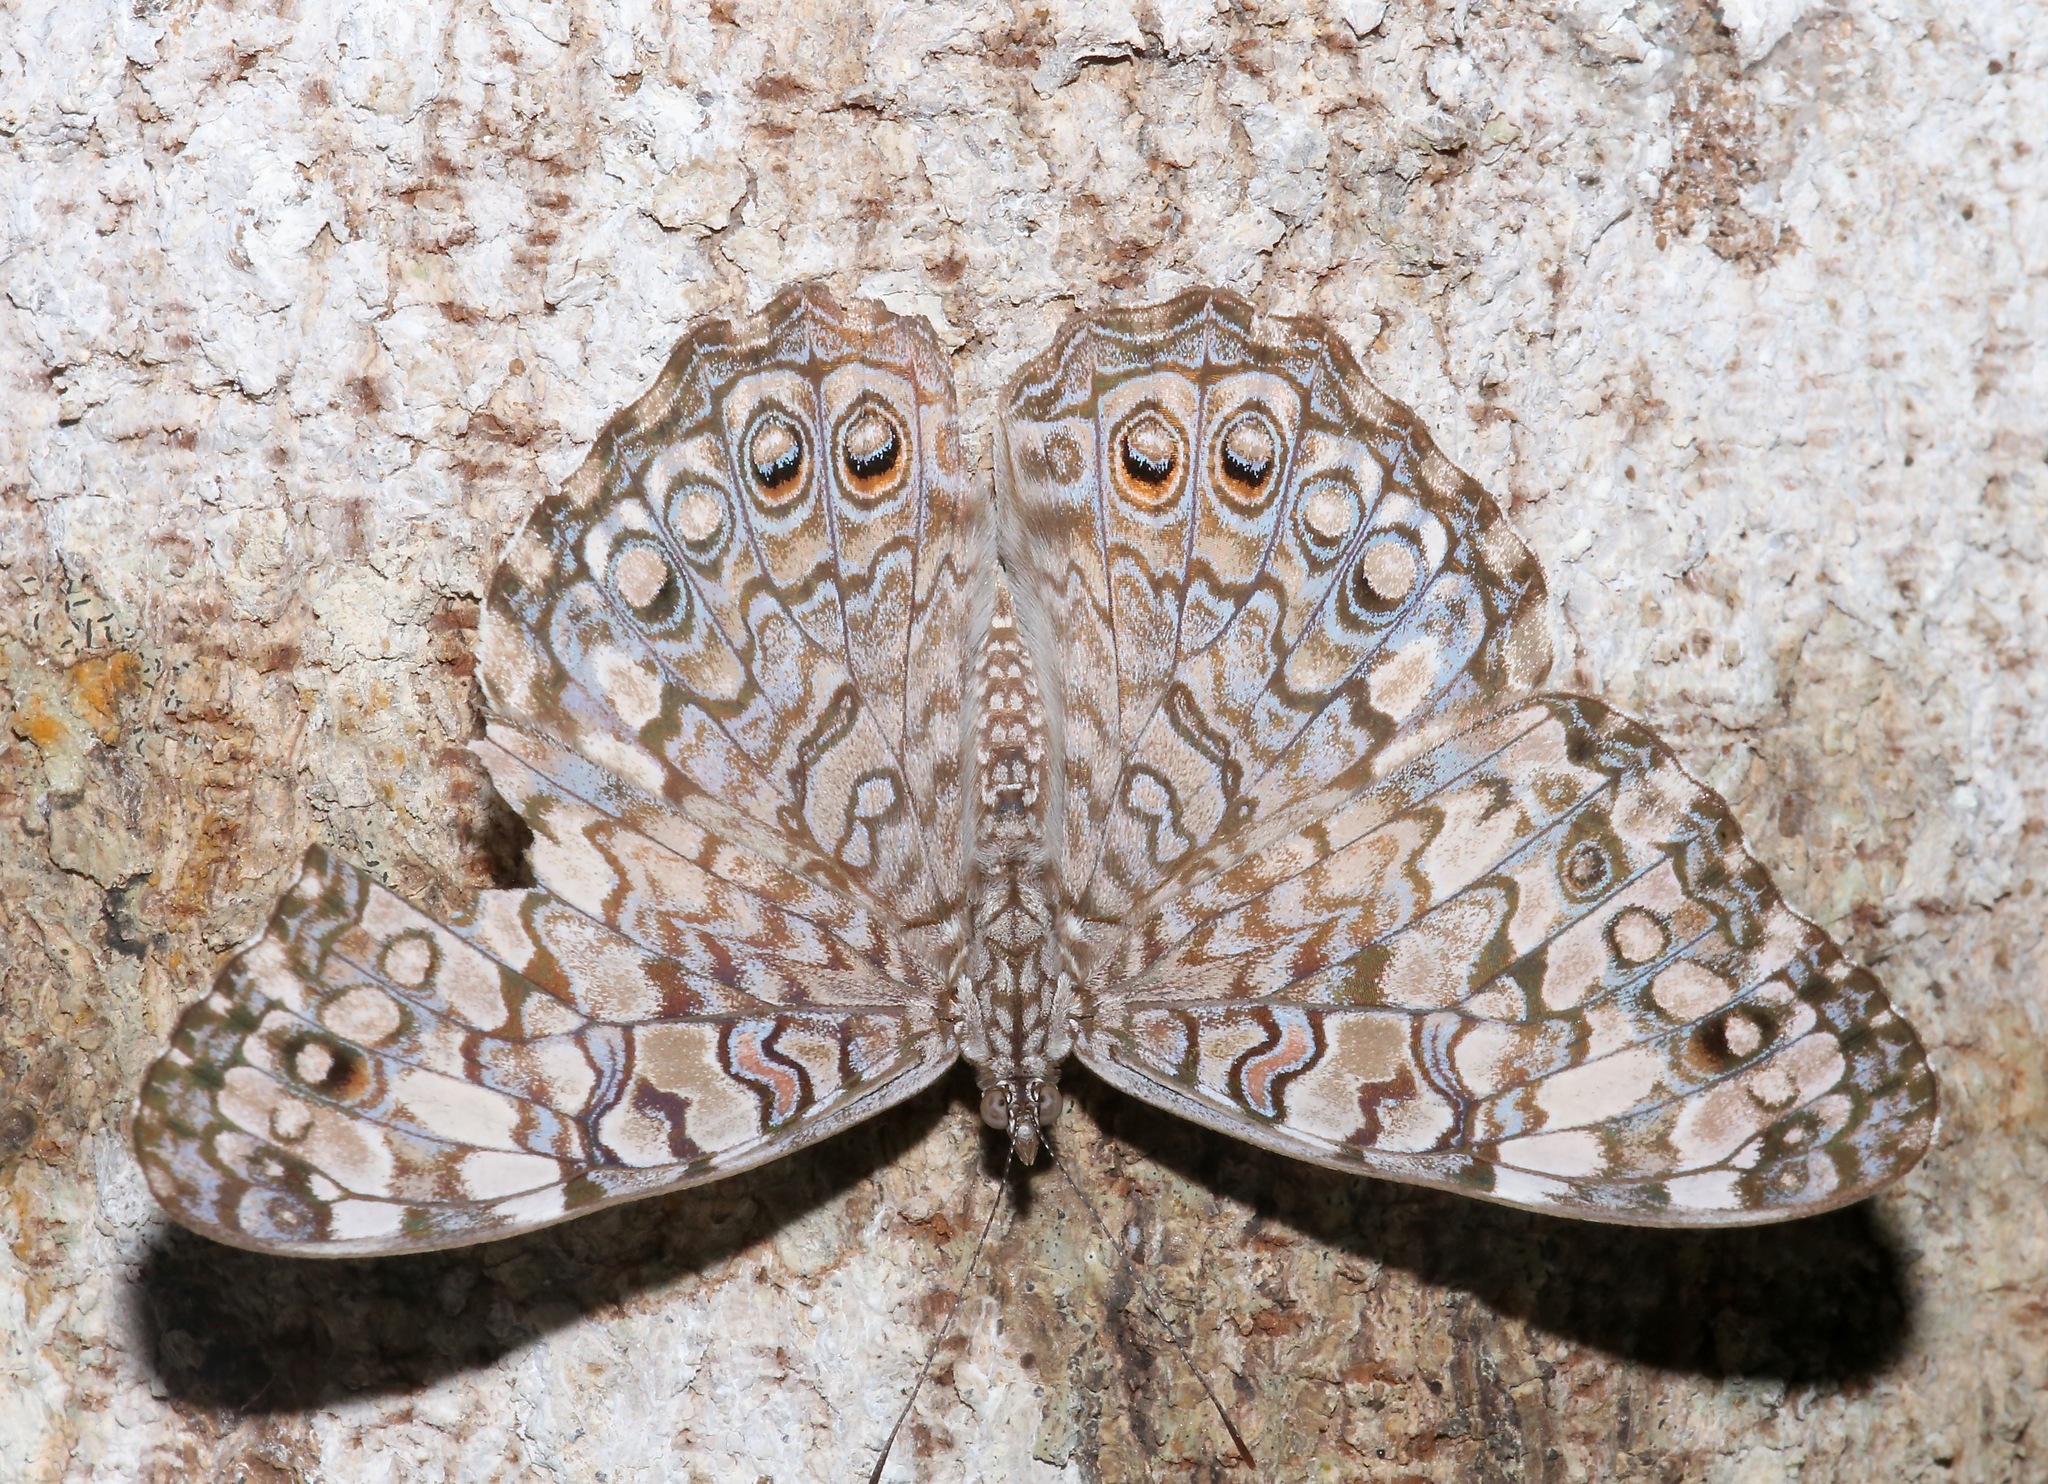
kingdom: Animalia
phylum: Arthropoda
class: Insecta
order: Lepidoptera
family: Nymphalidae
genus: Hamadryas
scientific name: Hamadryas februa
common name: Gray cracker
